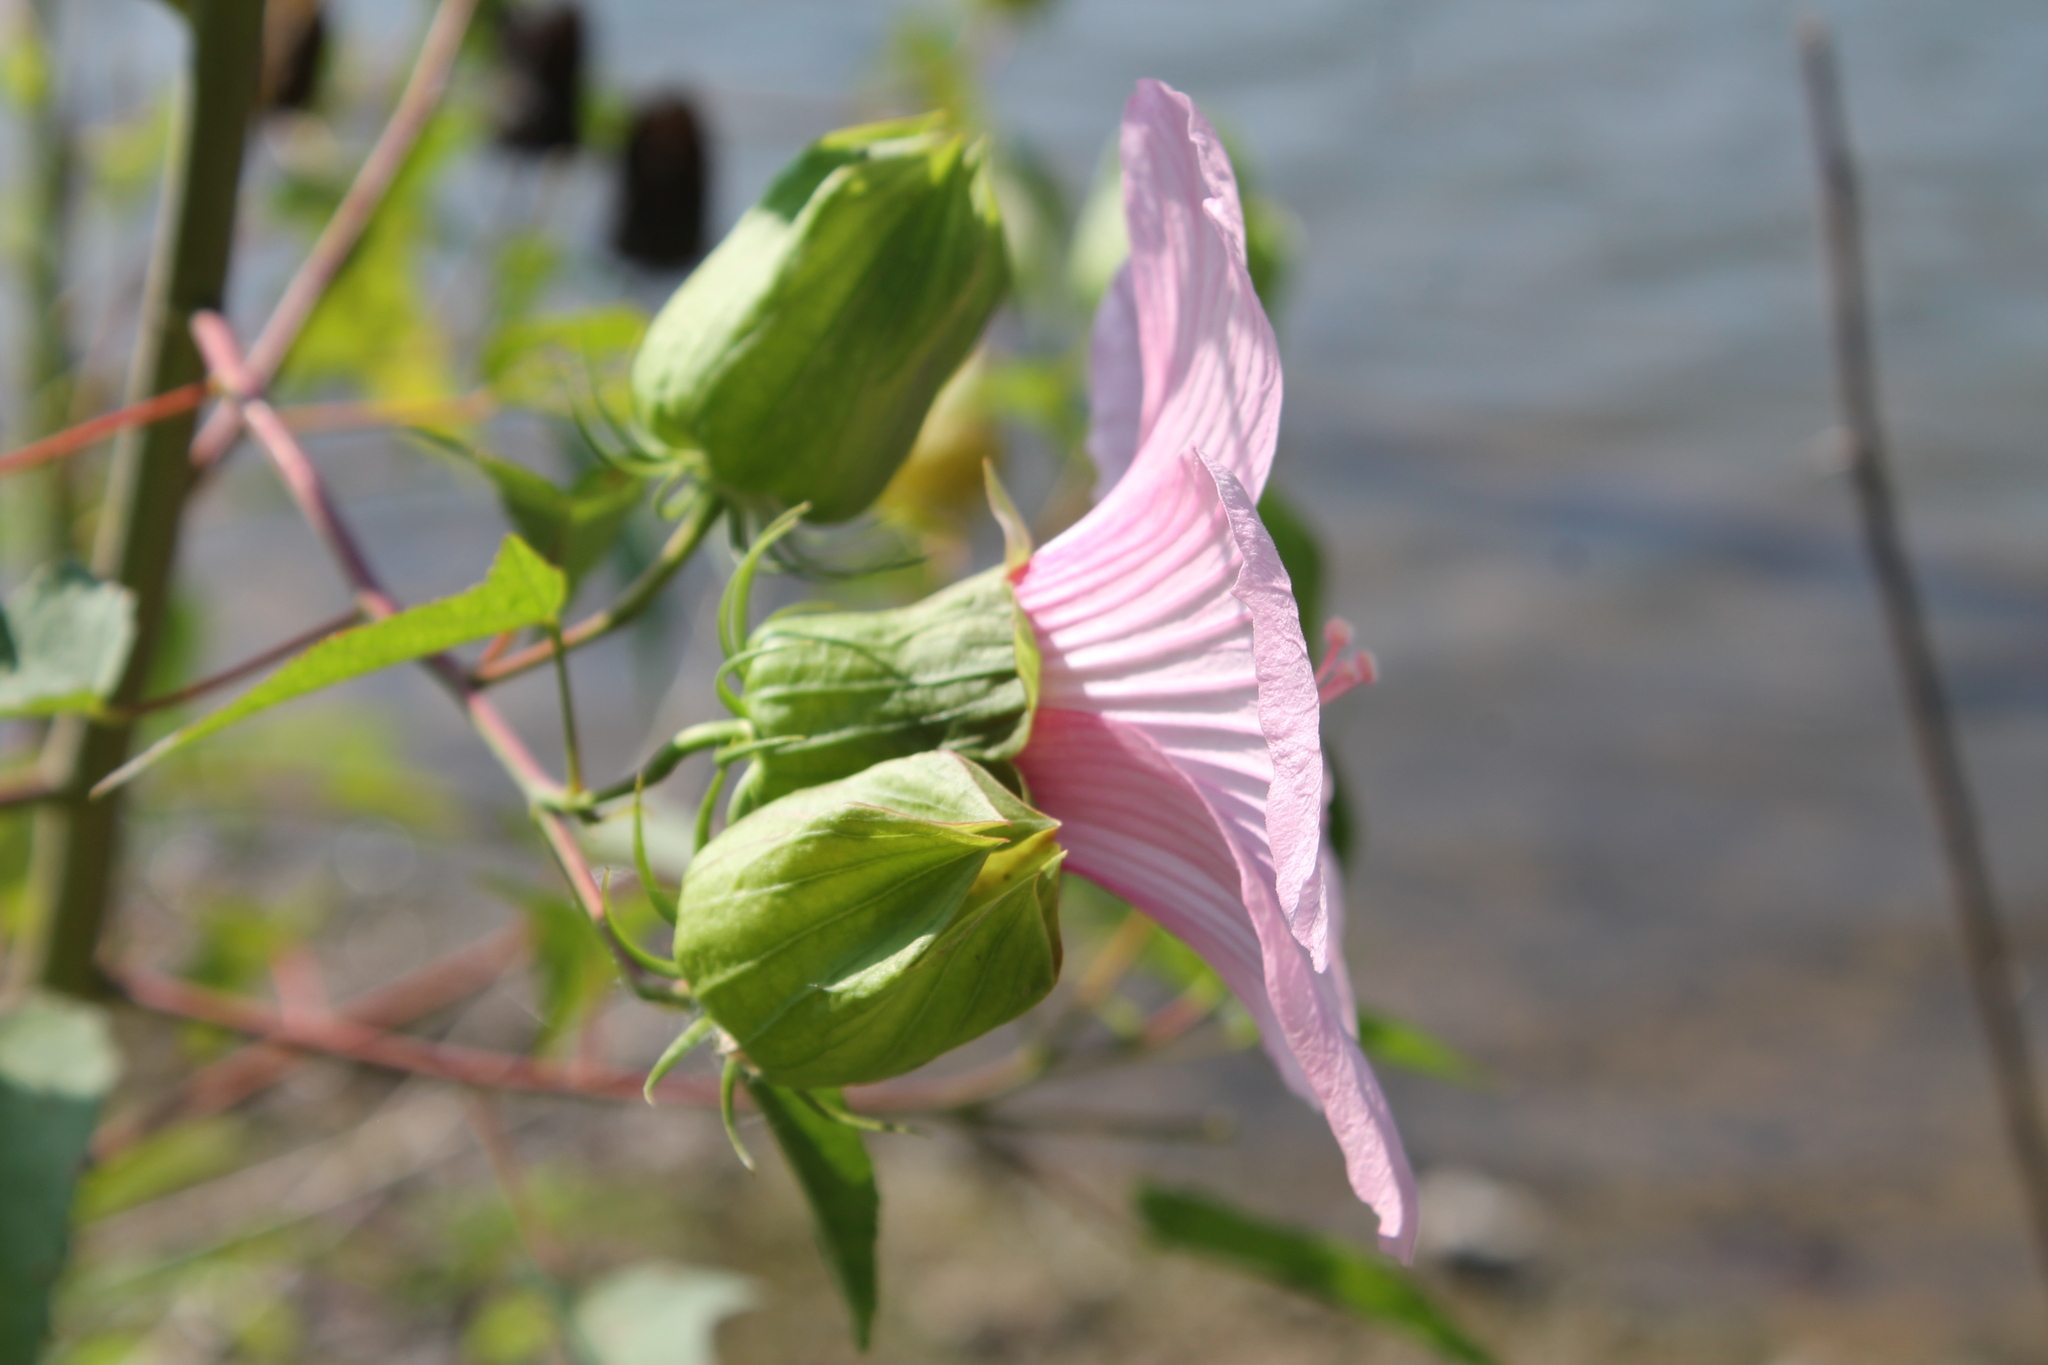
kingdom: Plantae
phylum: Tracheophyta
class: Magnoliopsida
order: Malvales
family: Malvaceae
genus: Hibiscus
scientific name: Hibiscus laevis
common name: Scarlet rose-mallow
